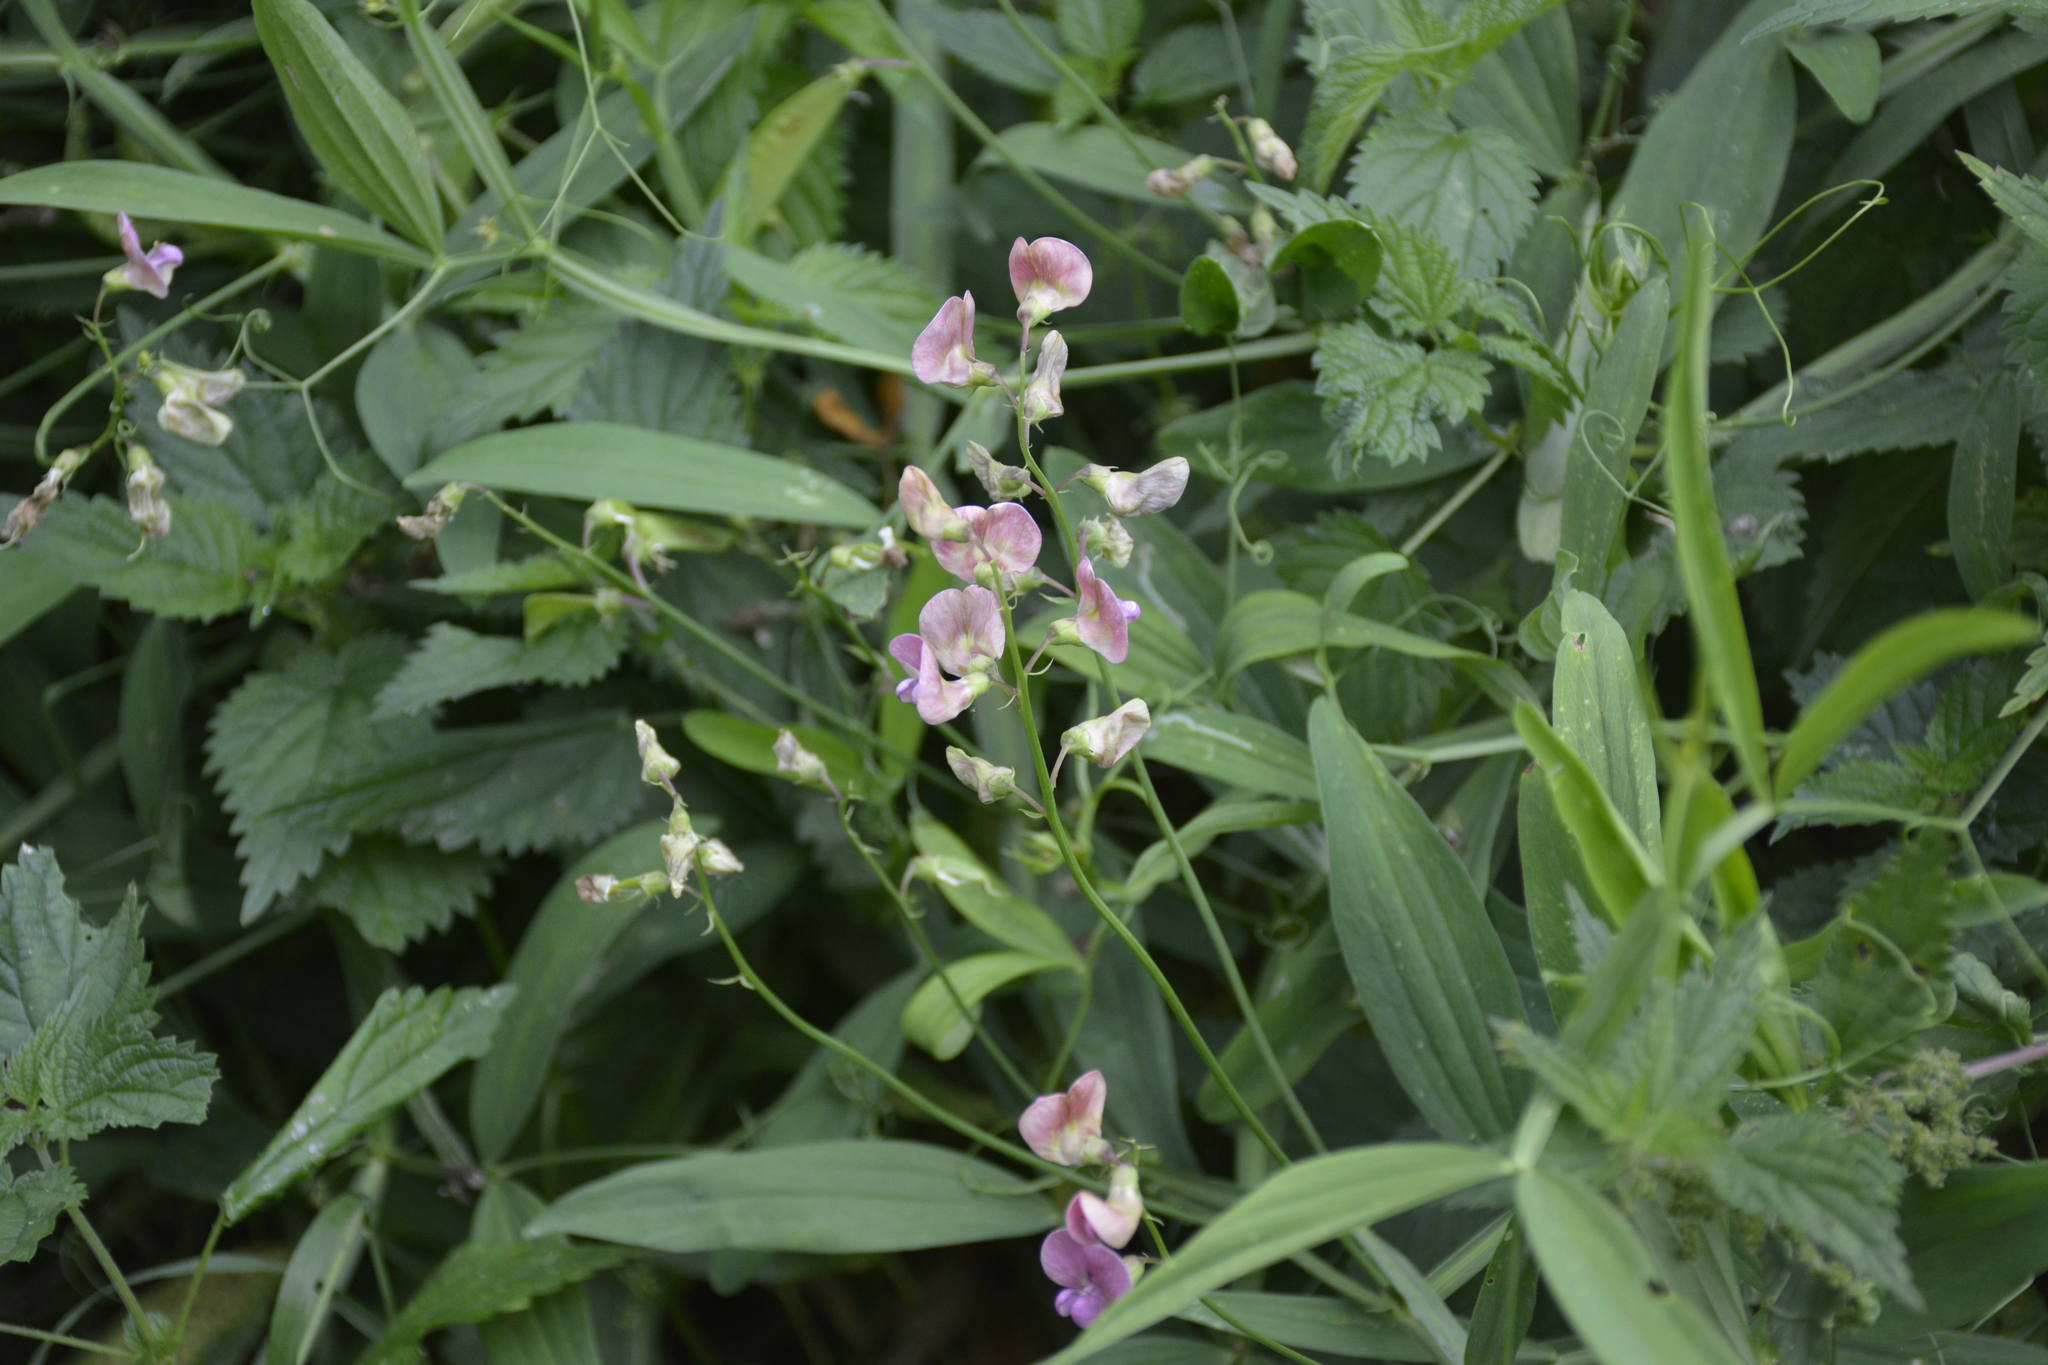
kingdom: Plantae
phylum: Tracheophyta
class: Magnoliopsida
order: Fabales
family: Fabaceae
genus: Lathyrus
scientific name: Lathyrus sylvestris
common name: Flat pea
